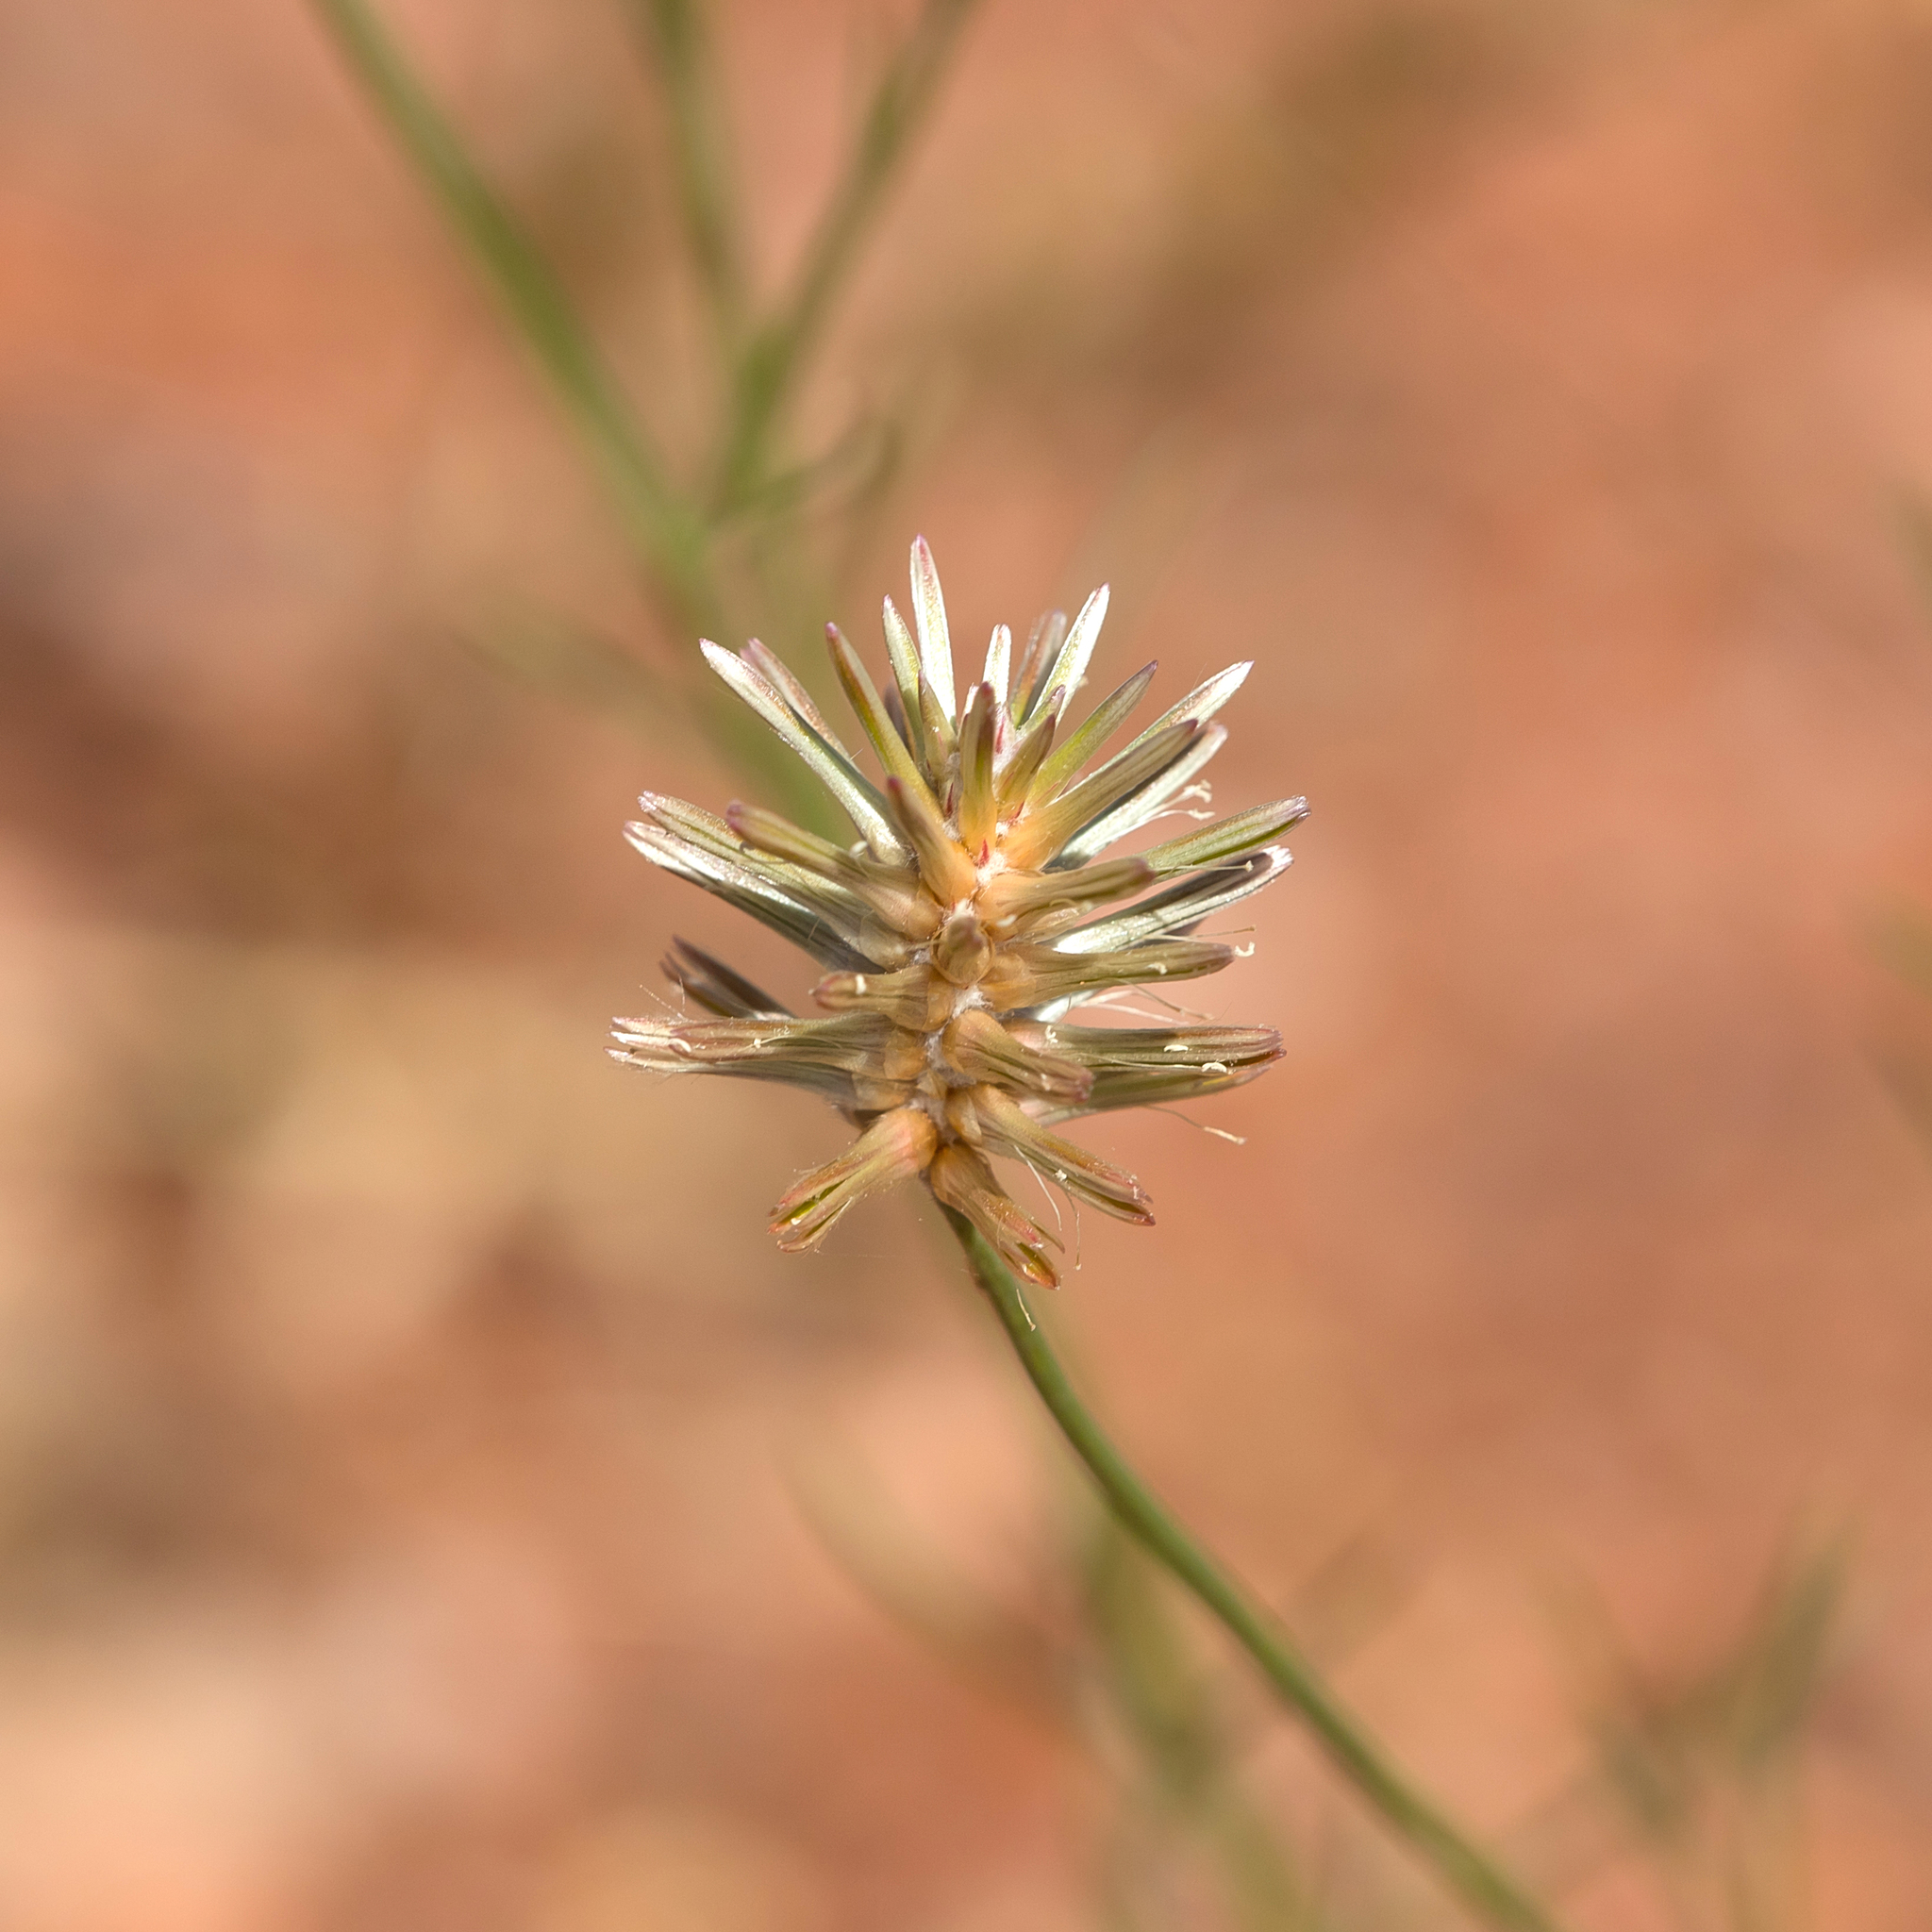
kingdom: Plantae
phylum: Tracheophyta
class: Magnoliopsida
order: Caryophyllales
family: Amaranthaceae
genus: Ptilotus
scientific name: Ptilotus fusiformis
